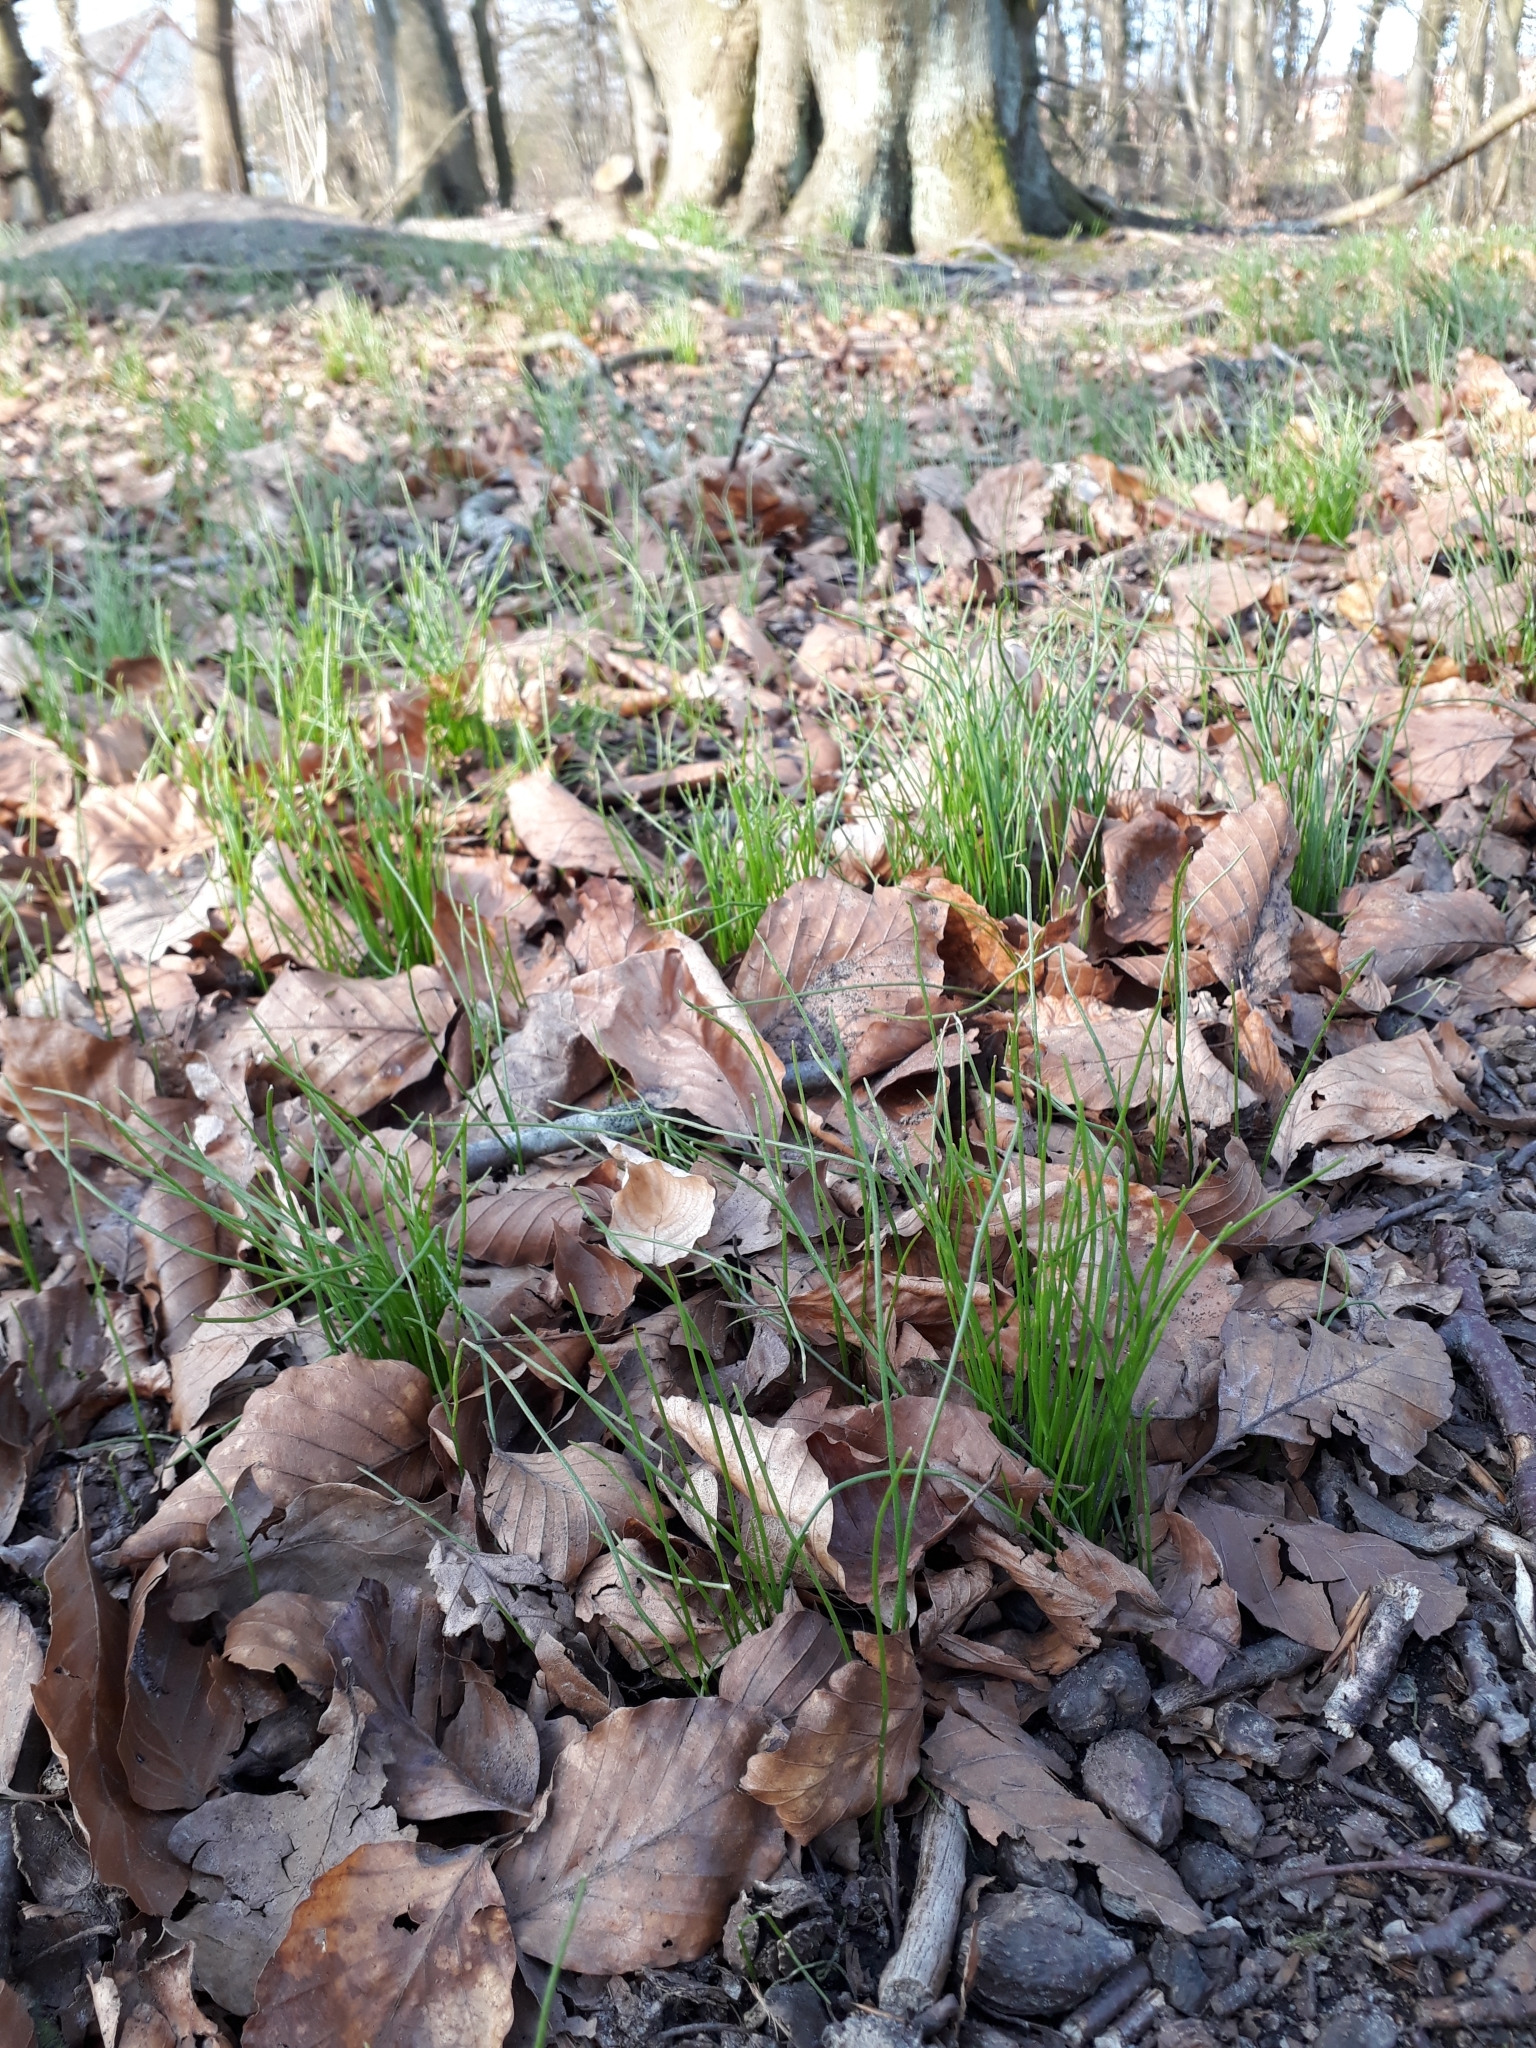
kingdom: Plantae
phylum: Tracheophyta
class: Liliopsida
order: Liliales
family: Liliaceae
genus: Gagea
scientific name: Gagea spathacea
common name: Belgian gagea
